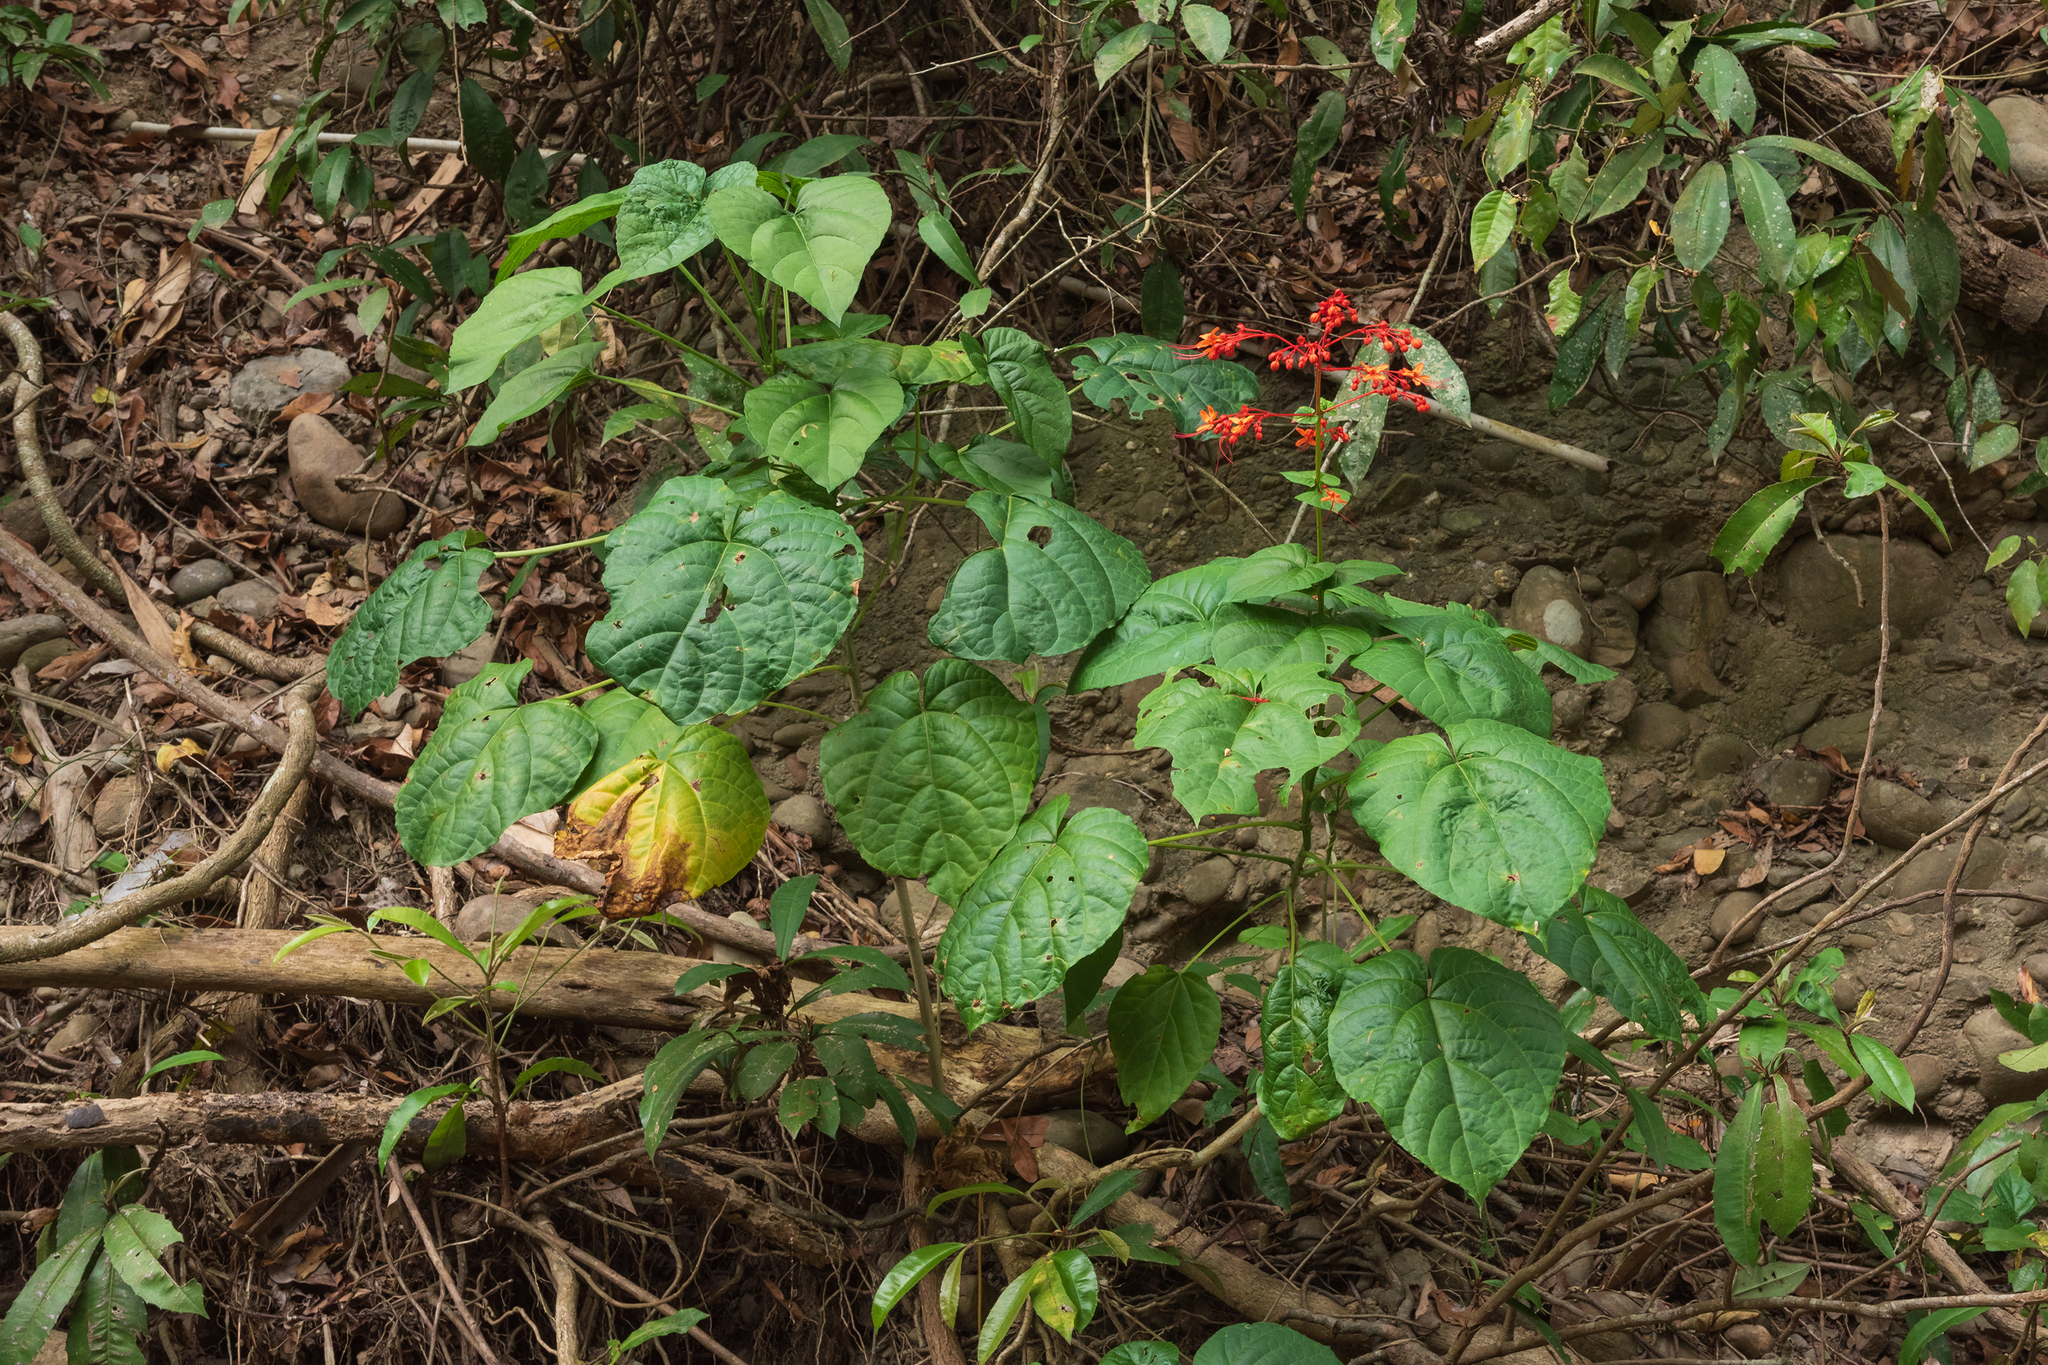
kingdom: Plantae
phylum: Tracheophyta
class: Magnoliopsida
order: Lamiales
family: Lamiaceae
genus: Clerodendrum
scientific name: Clerodendrum japonicum
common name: Japanese glorybower
